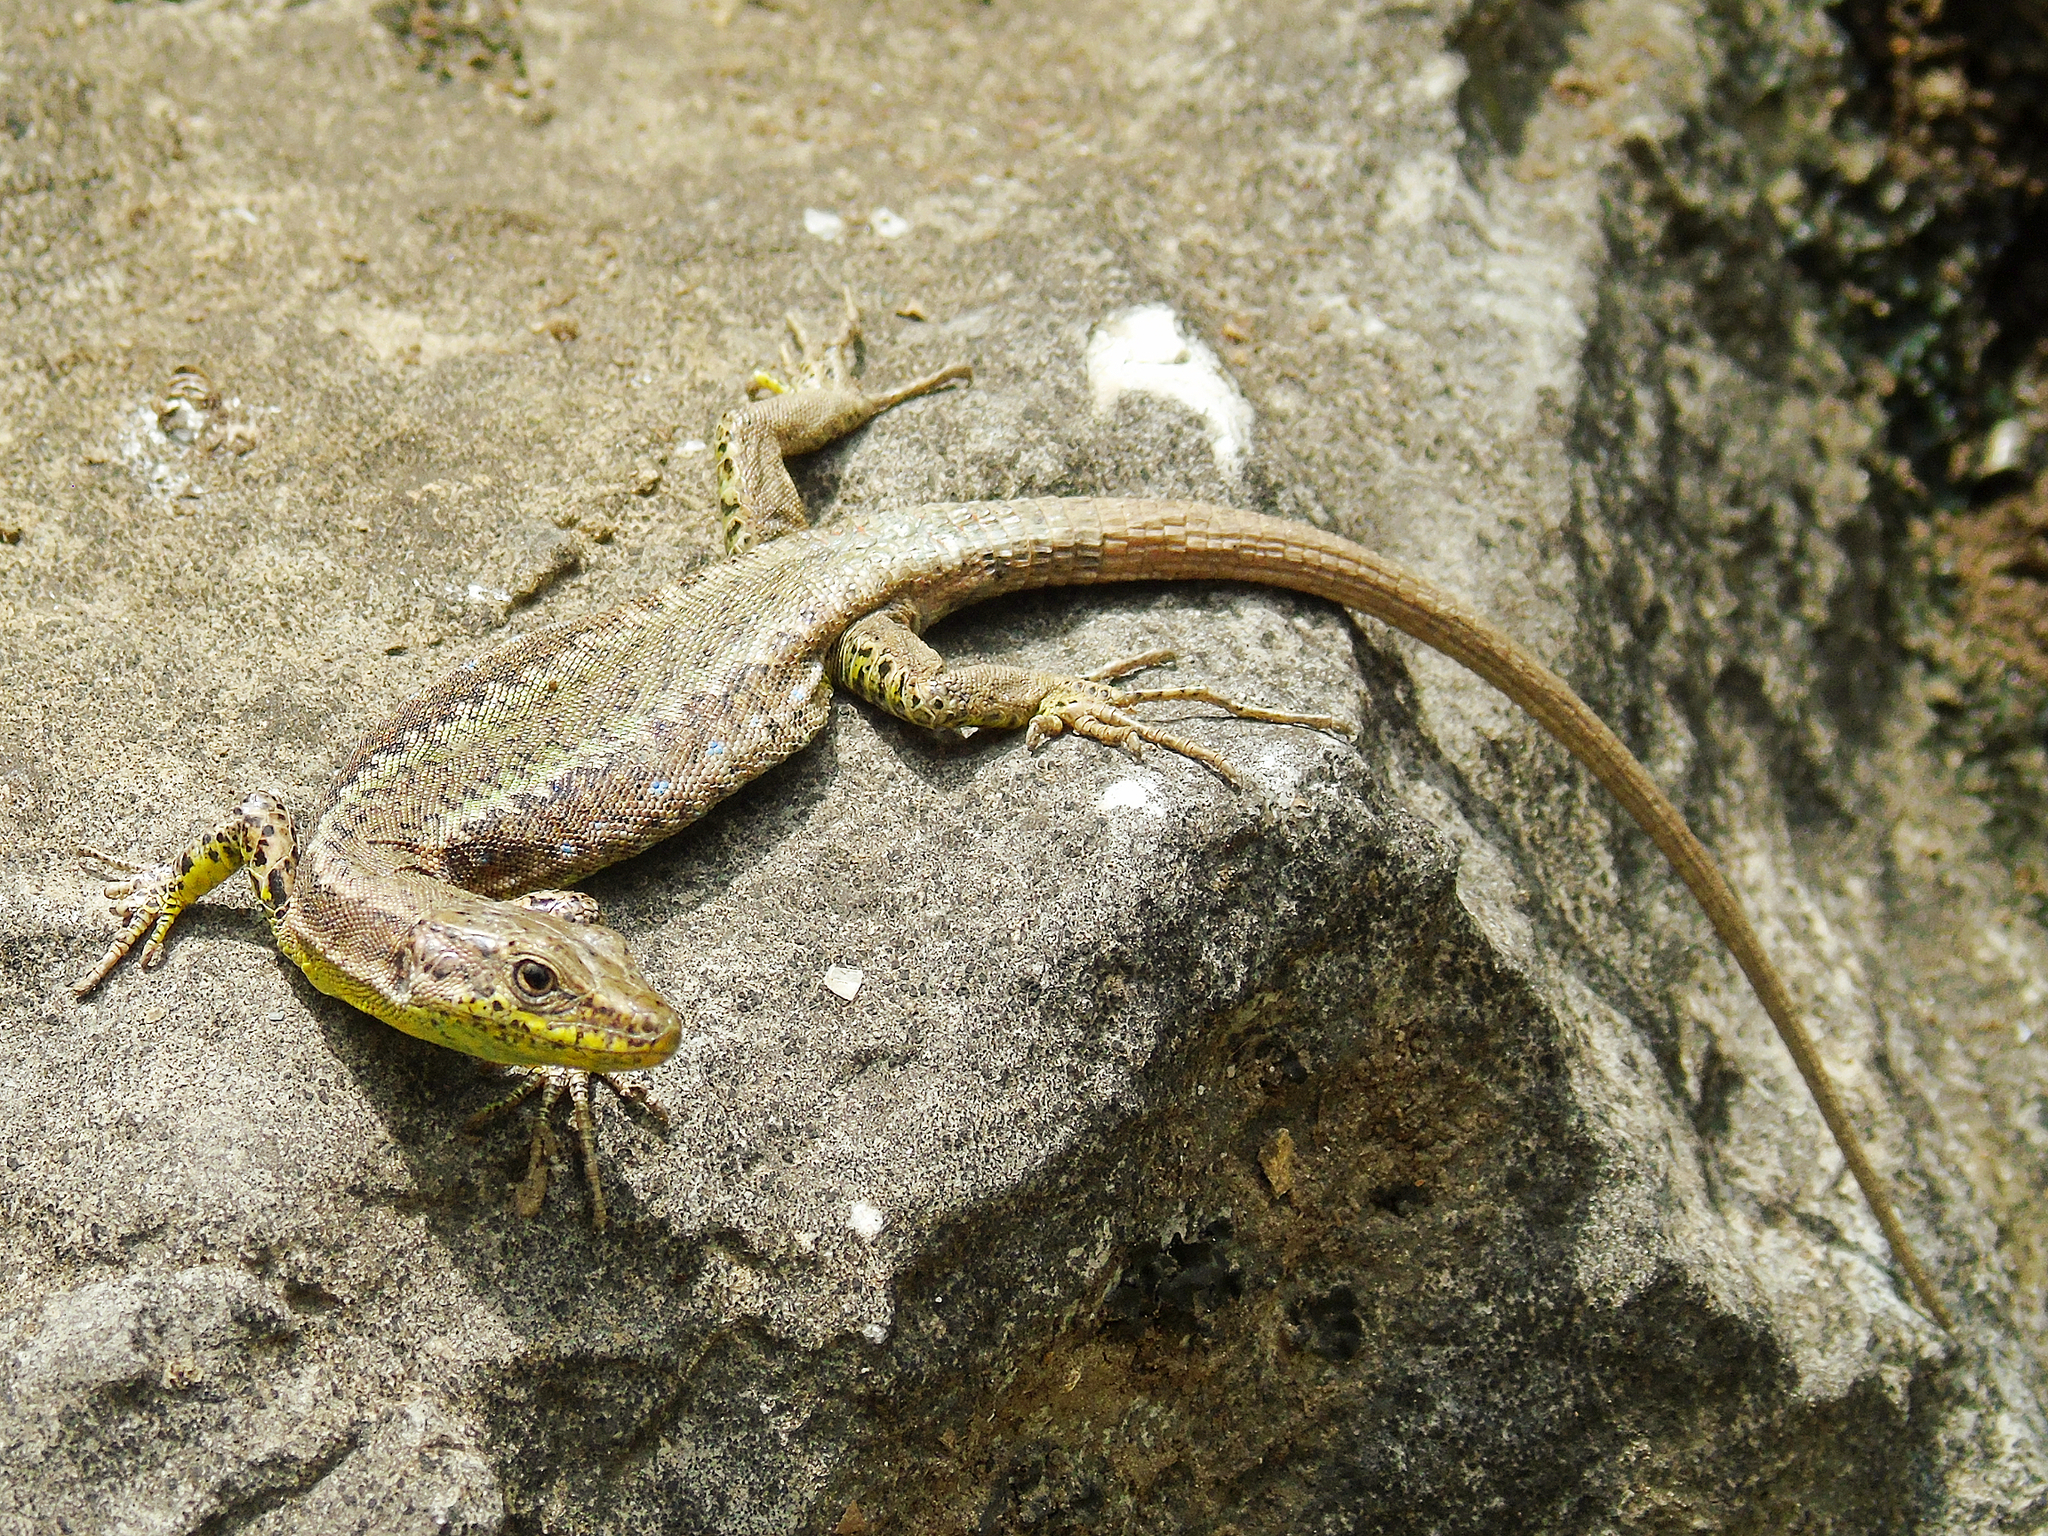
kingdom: Animalia
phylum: Chordata
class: Squamata
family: Lacertidae
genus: Darevskia
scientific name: Darevskia rudis
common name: Spiny-tailed lizard
